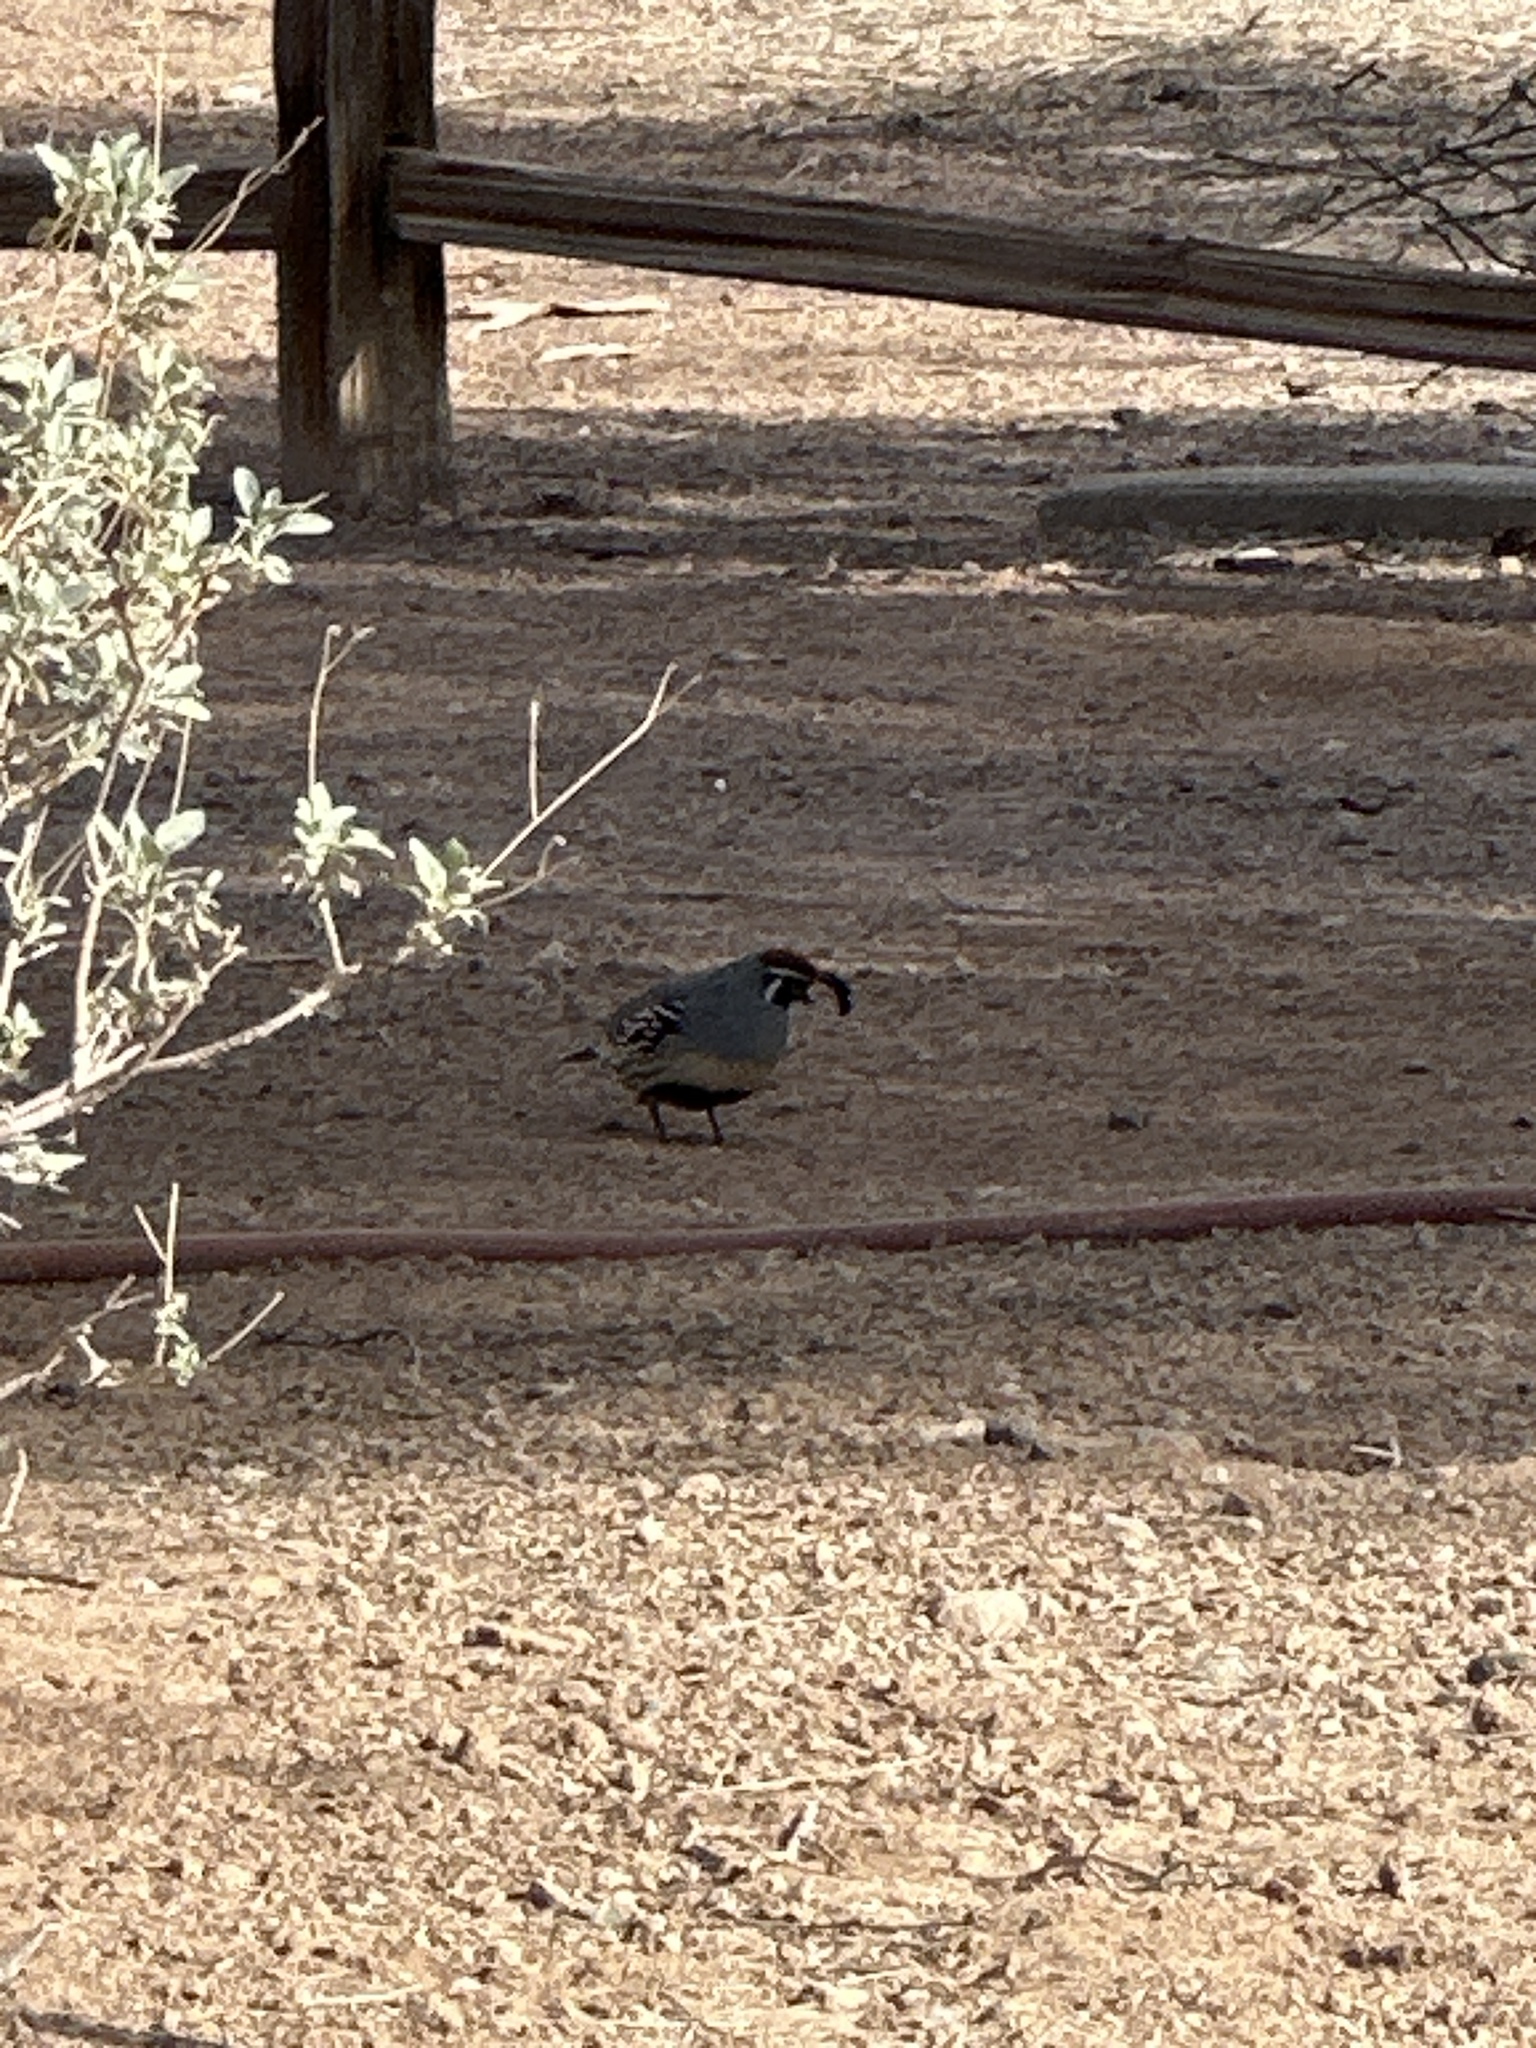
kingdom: Animalia
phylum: Chordata
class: Aves
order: Galliformes
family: Odontophoridae
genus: Callipepla
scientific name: Callipepla gambelii
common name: Gambel's quail
